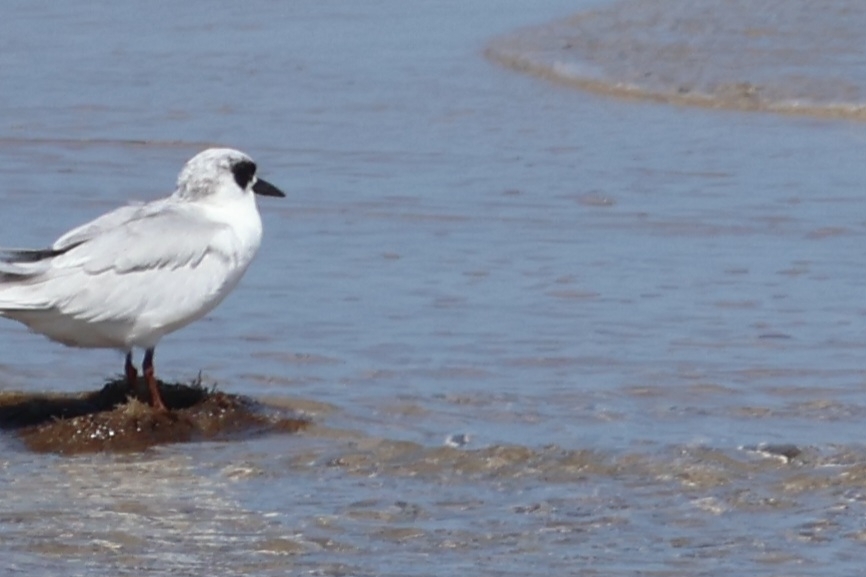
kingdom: Animalia
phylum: Chordata
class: Aves
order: Charadriiformes
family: Laridae
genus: Sterna
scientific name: Sterna forsteri
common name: Forster's tern
